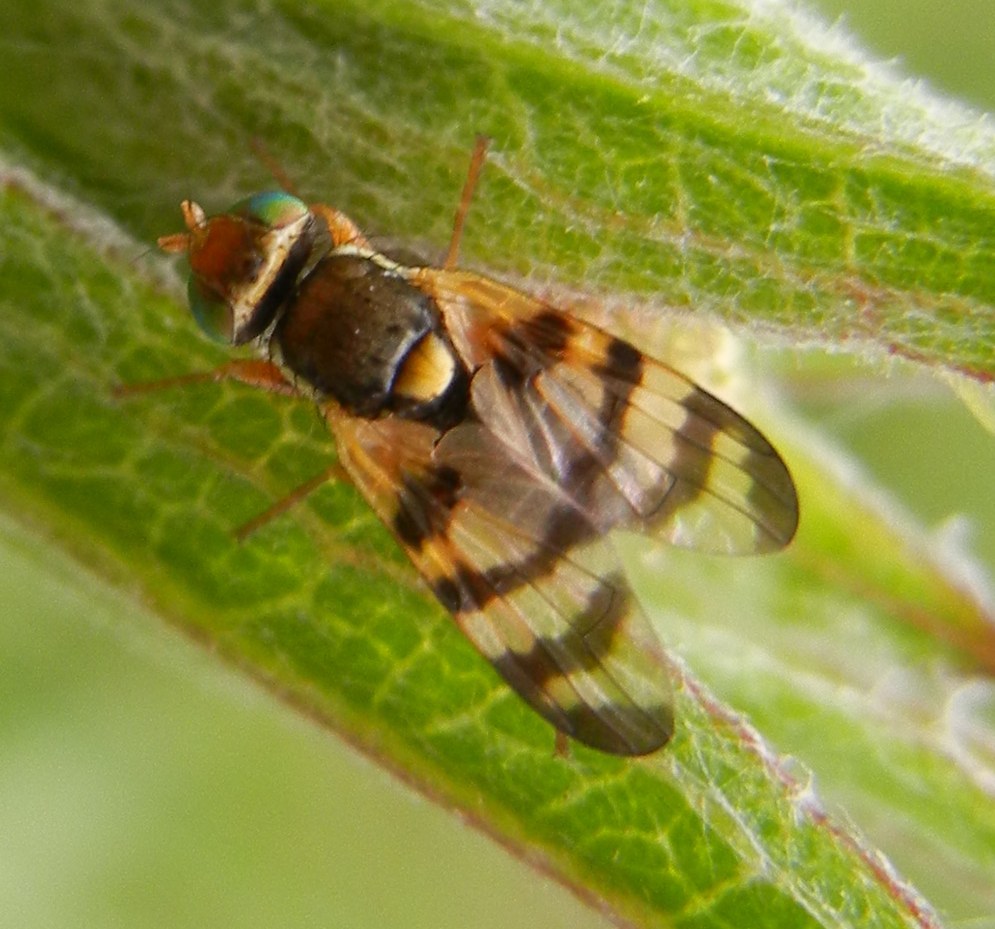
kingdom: Animalia
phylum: Arthropoda
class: Insecta
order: Diptera
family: Tephritidae
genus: Urophora
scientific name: Urophora jaceana
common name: Fruit fly
